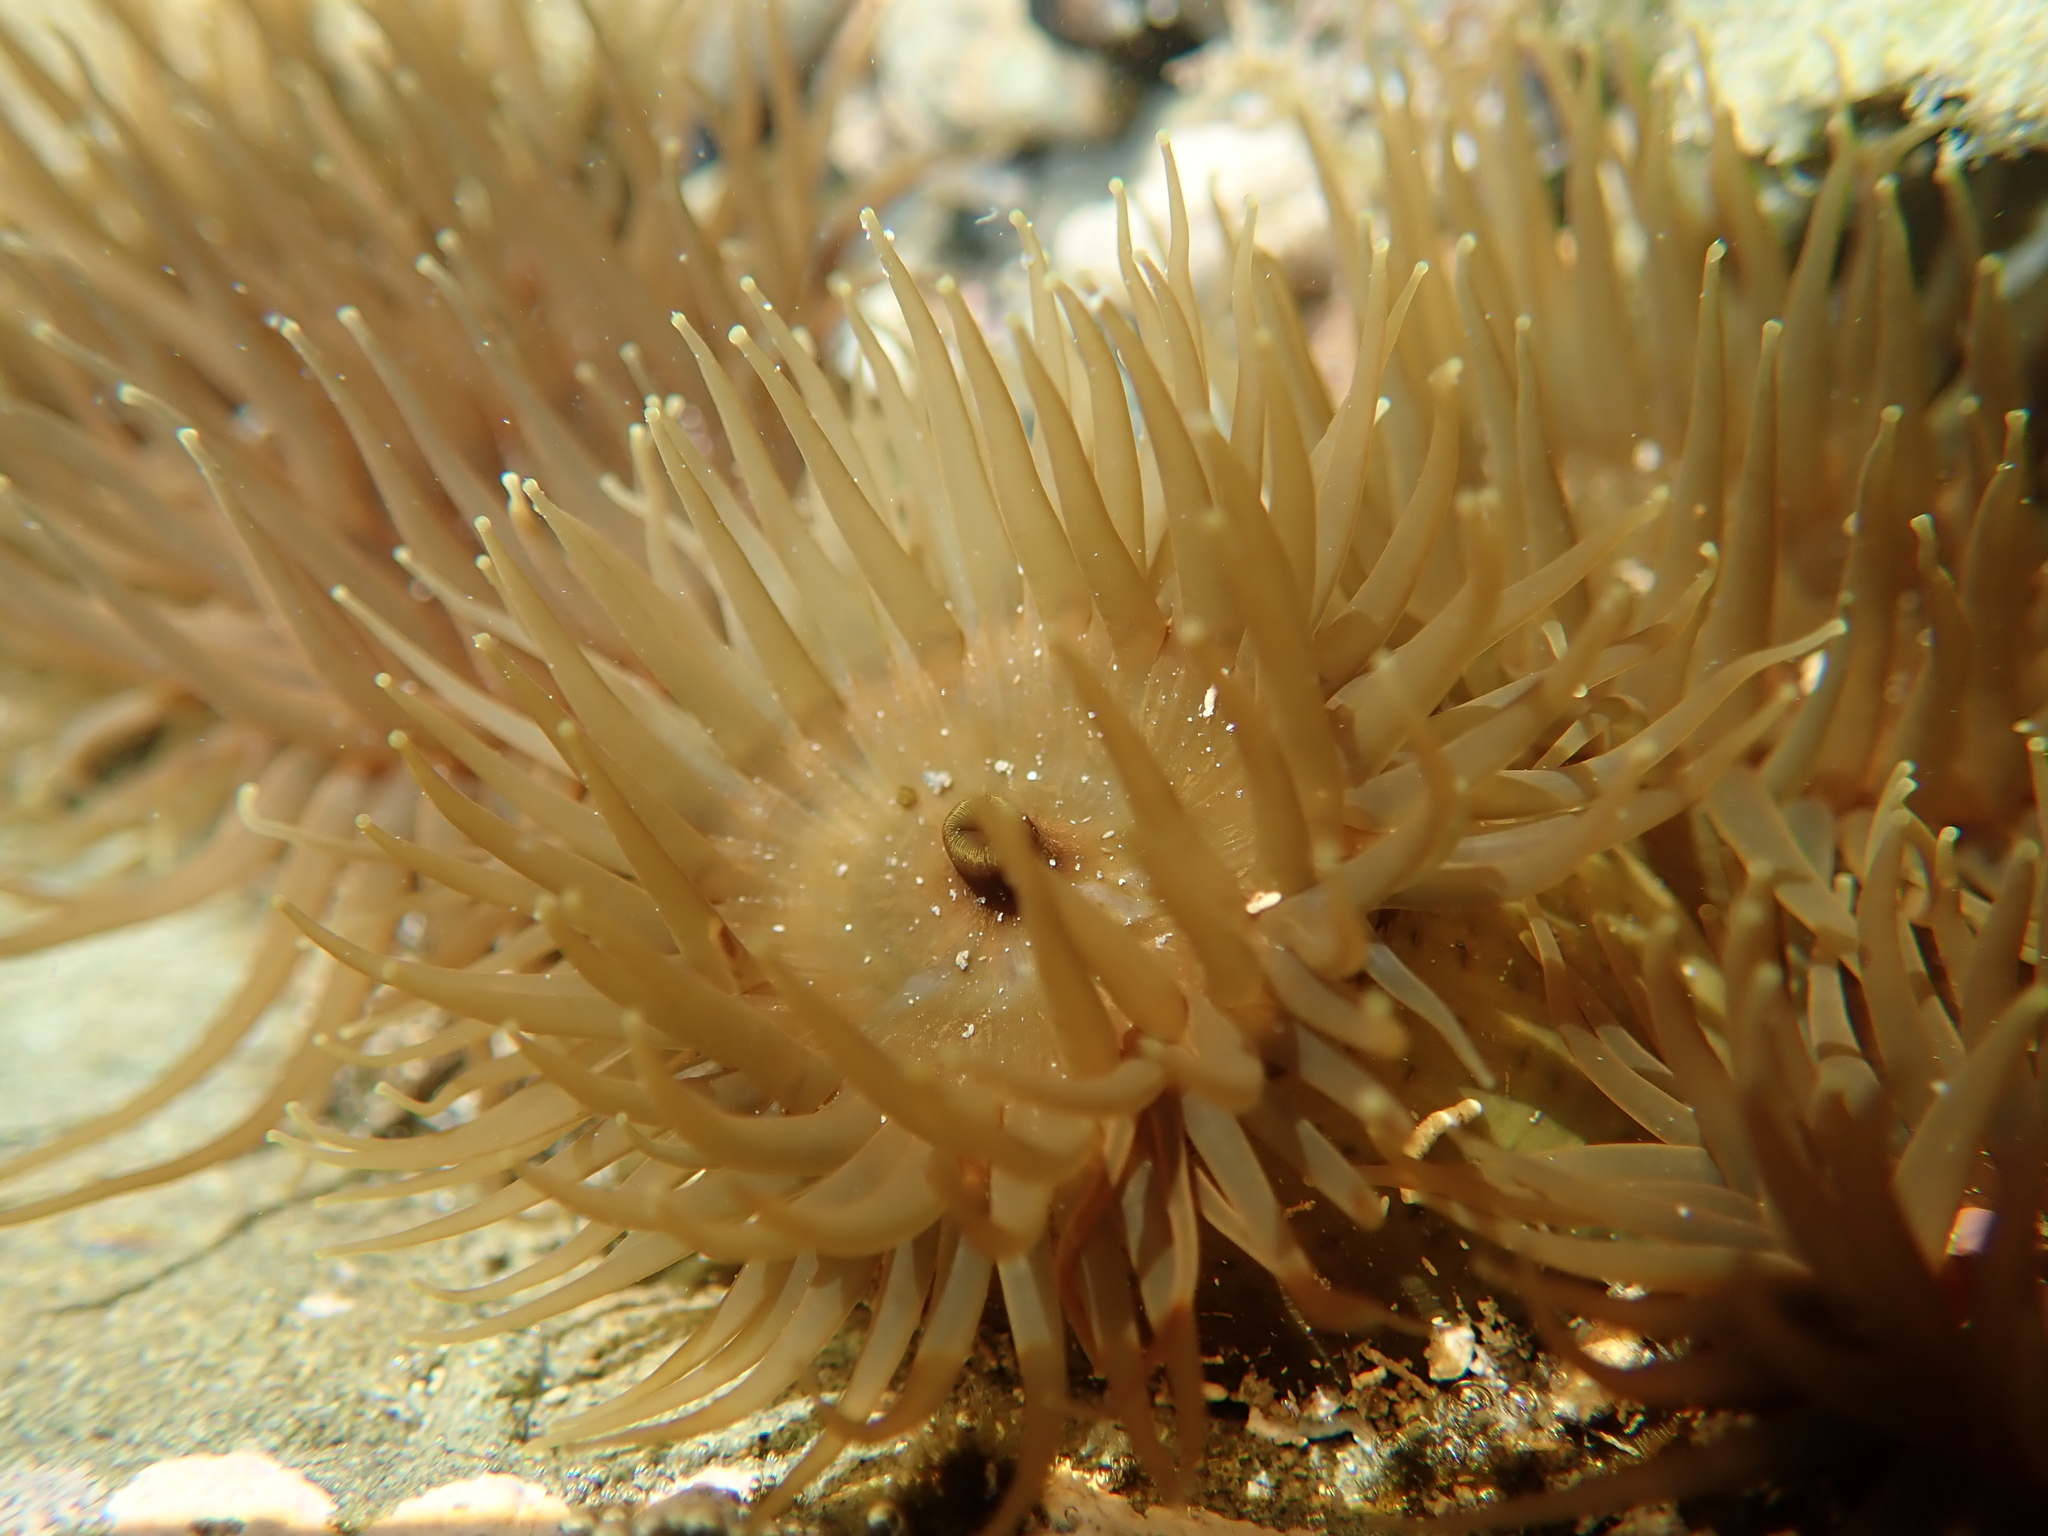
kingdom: Animalia
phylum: Cnidaria
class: Anthozoa
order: Actiniaria
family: Actiniidae
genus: Isactinia
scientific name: Isactinia olivacea
